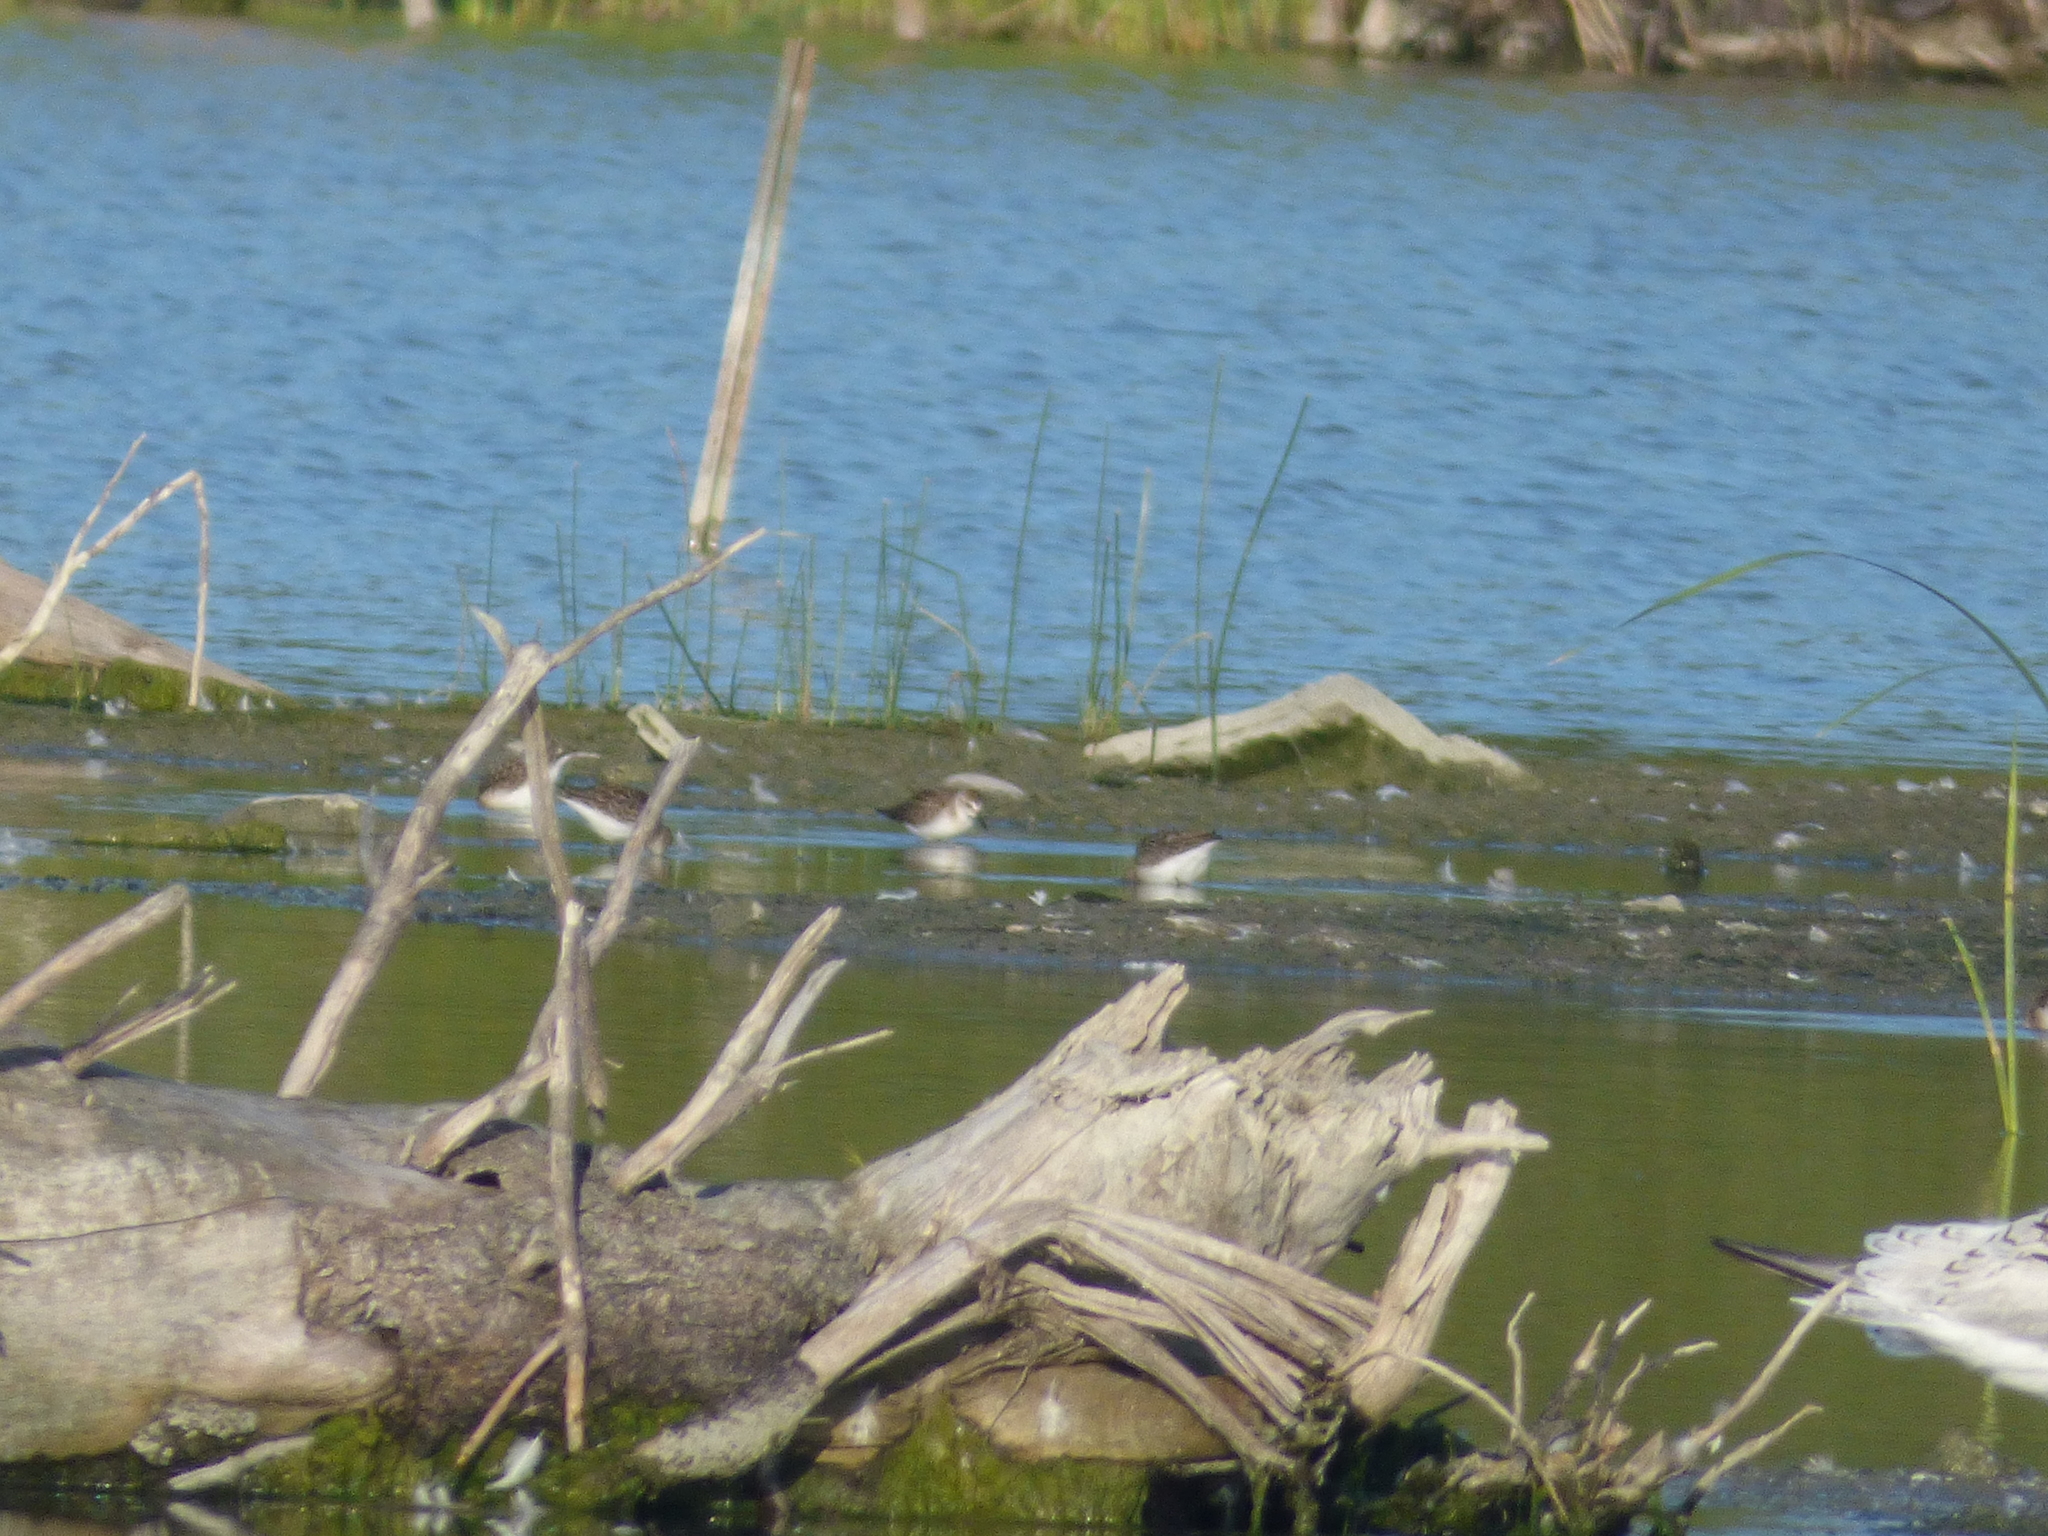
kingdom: Animalia
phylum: Chordata
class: Aves
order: Charadriiformes
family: Scolopacidae
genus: Calidris
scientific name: Calidris pusilla
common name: Semipalmated sandpiper
